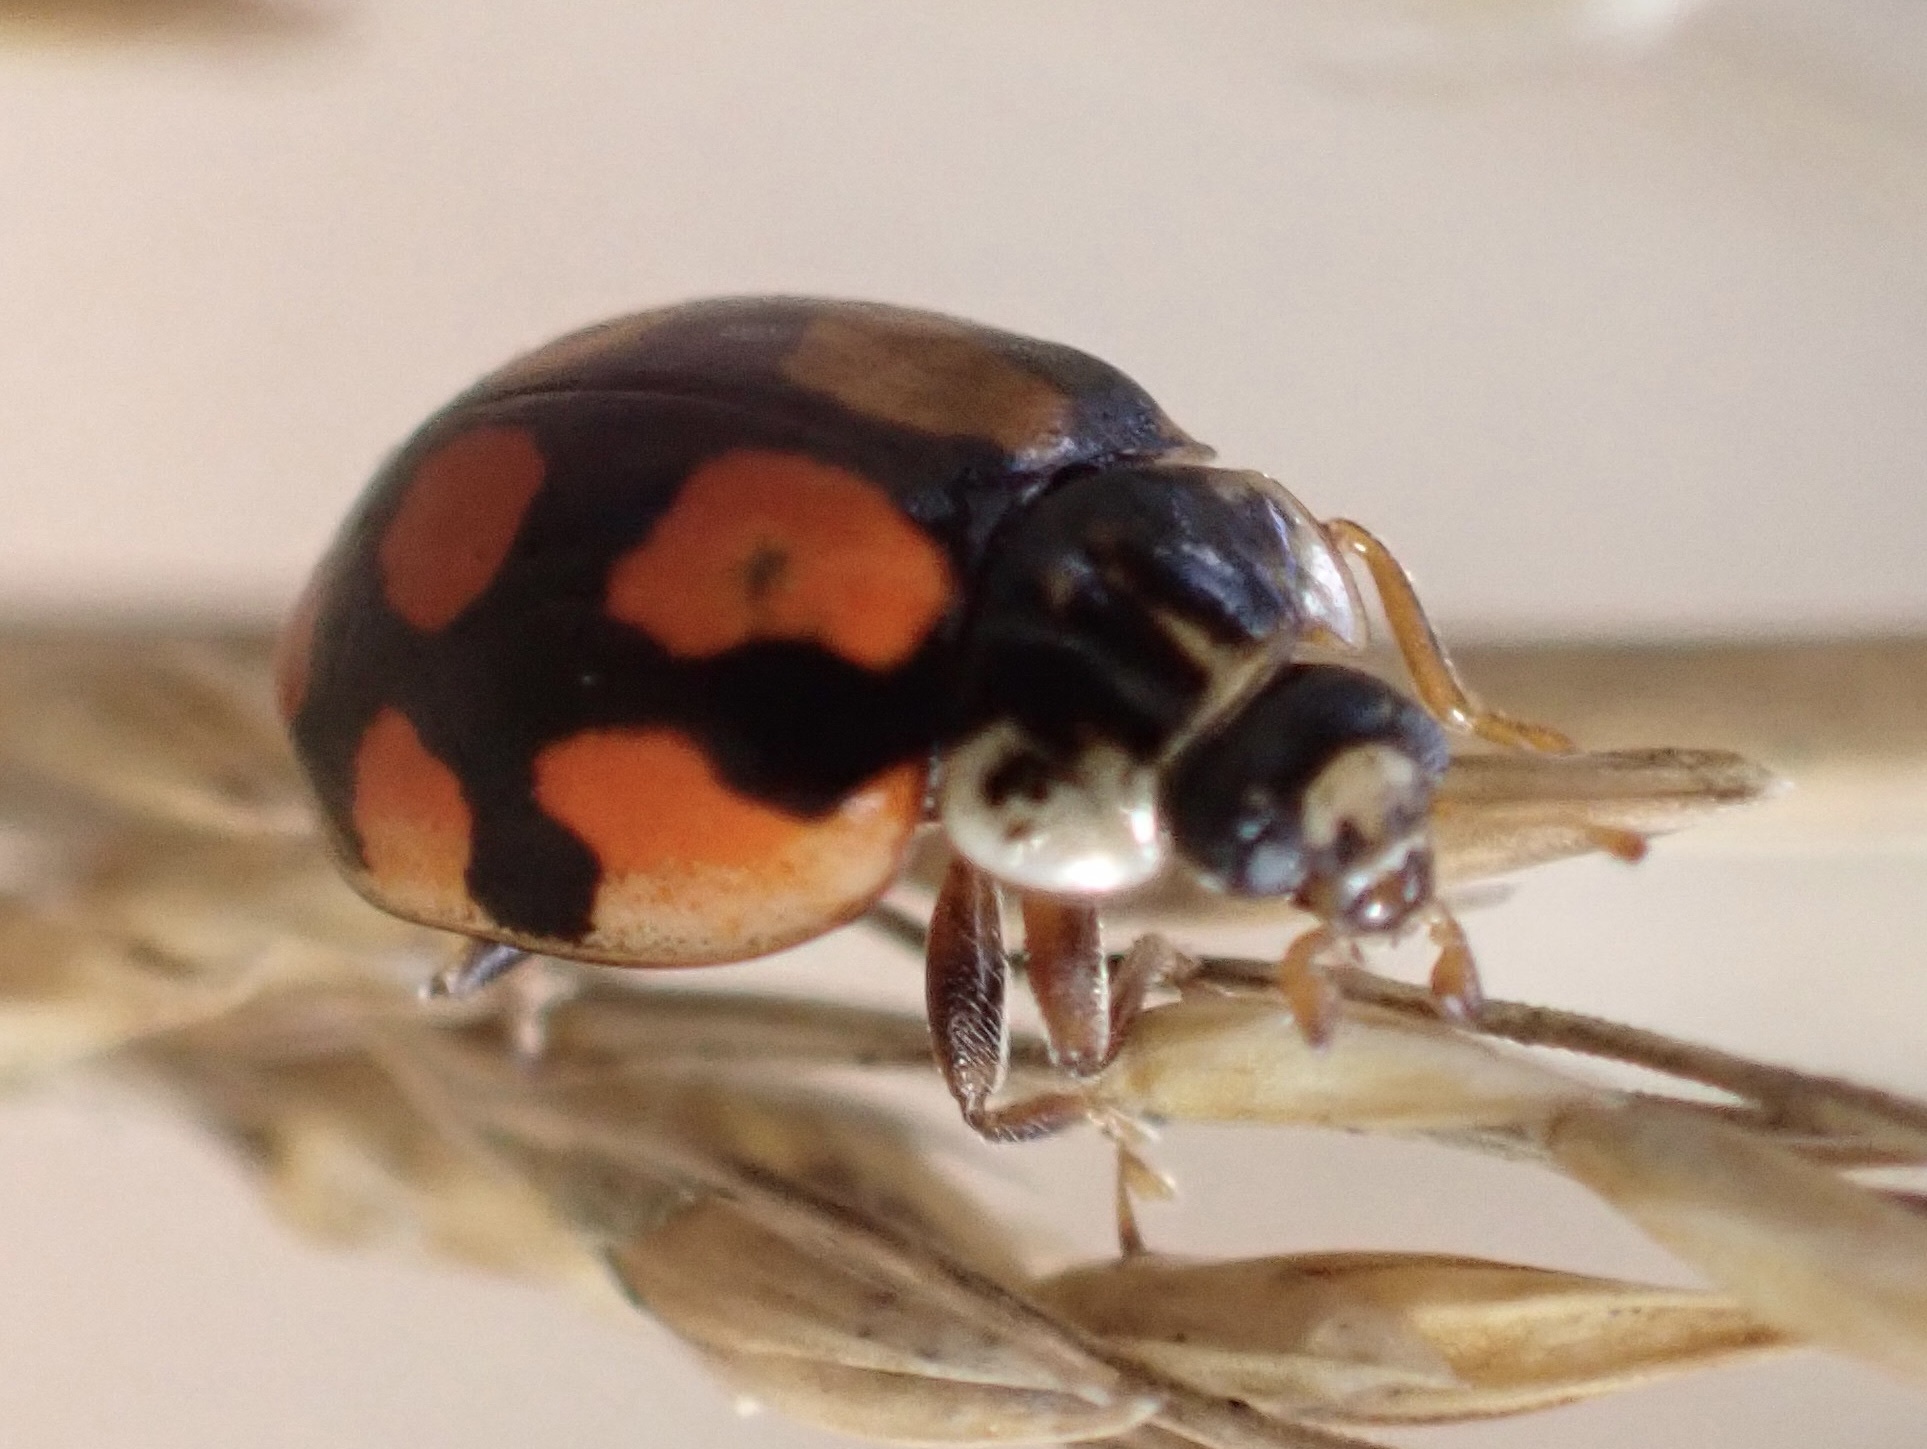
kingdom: Animalia
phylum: Arthropoda
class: Insecta
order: Coleoptera
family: Coccinellidae
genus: Adalia
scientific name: Adalia decempunctata
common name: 10-spot ladybird
